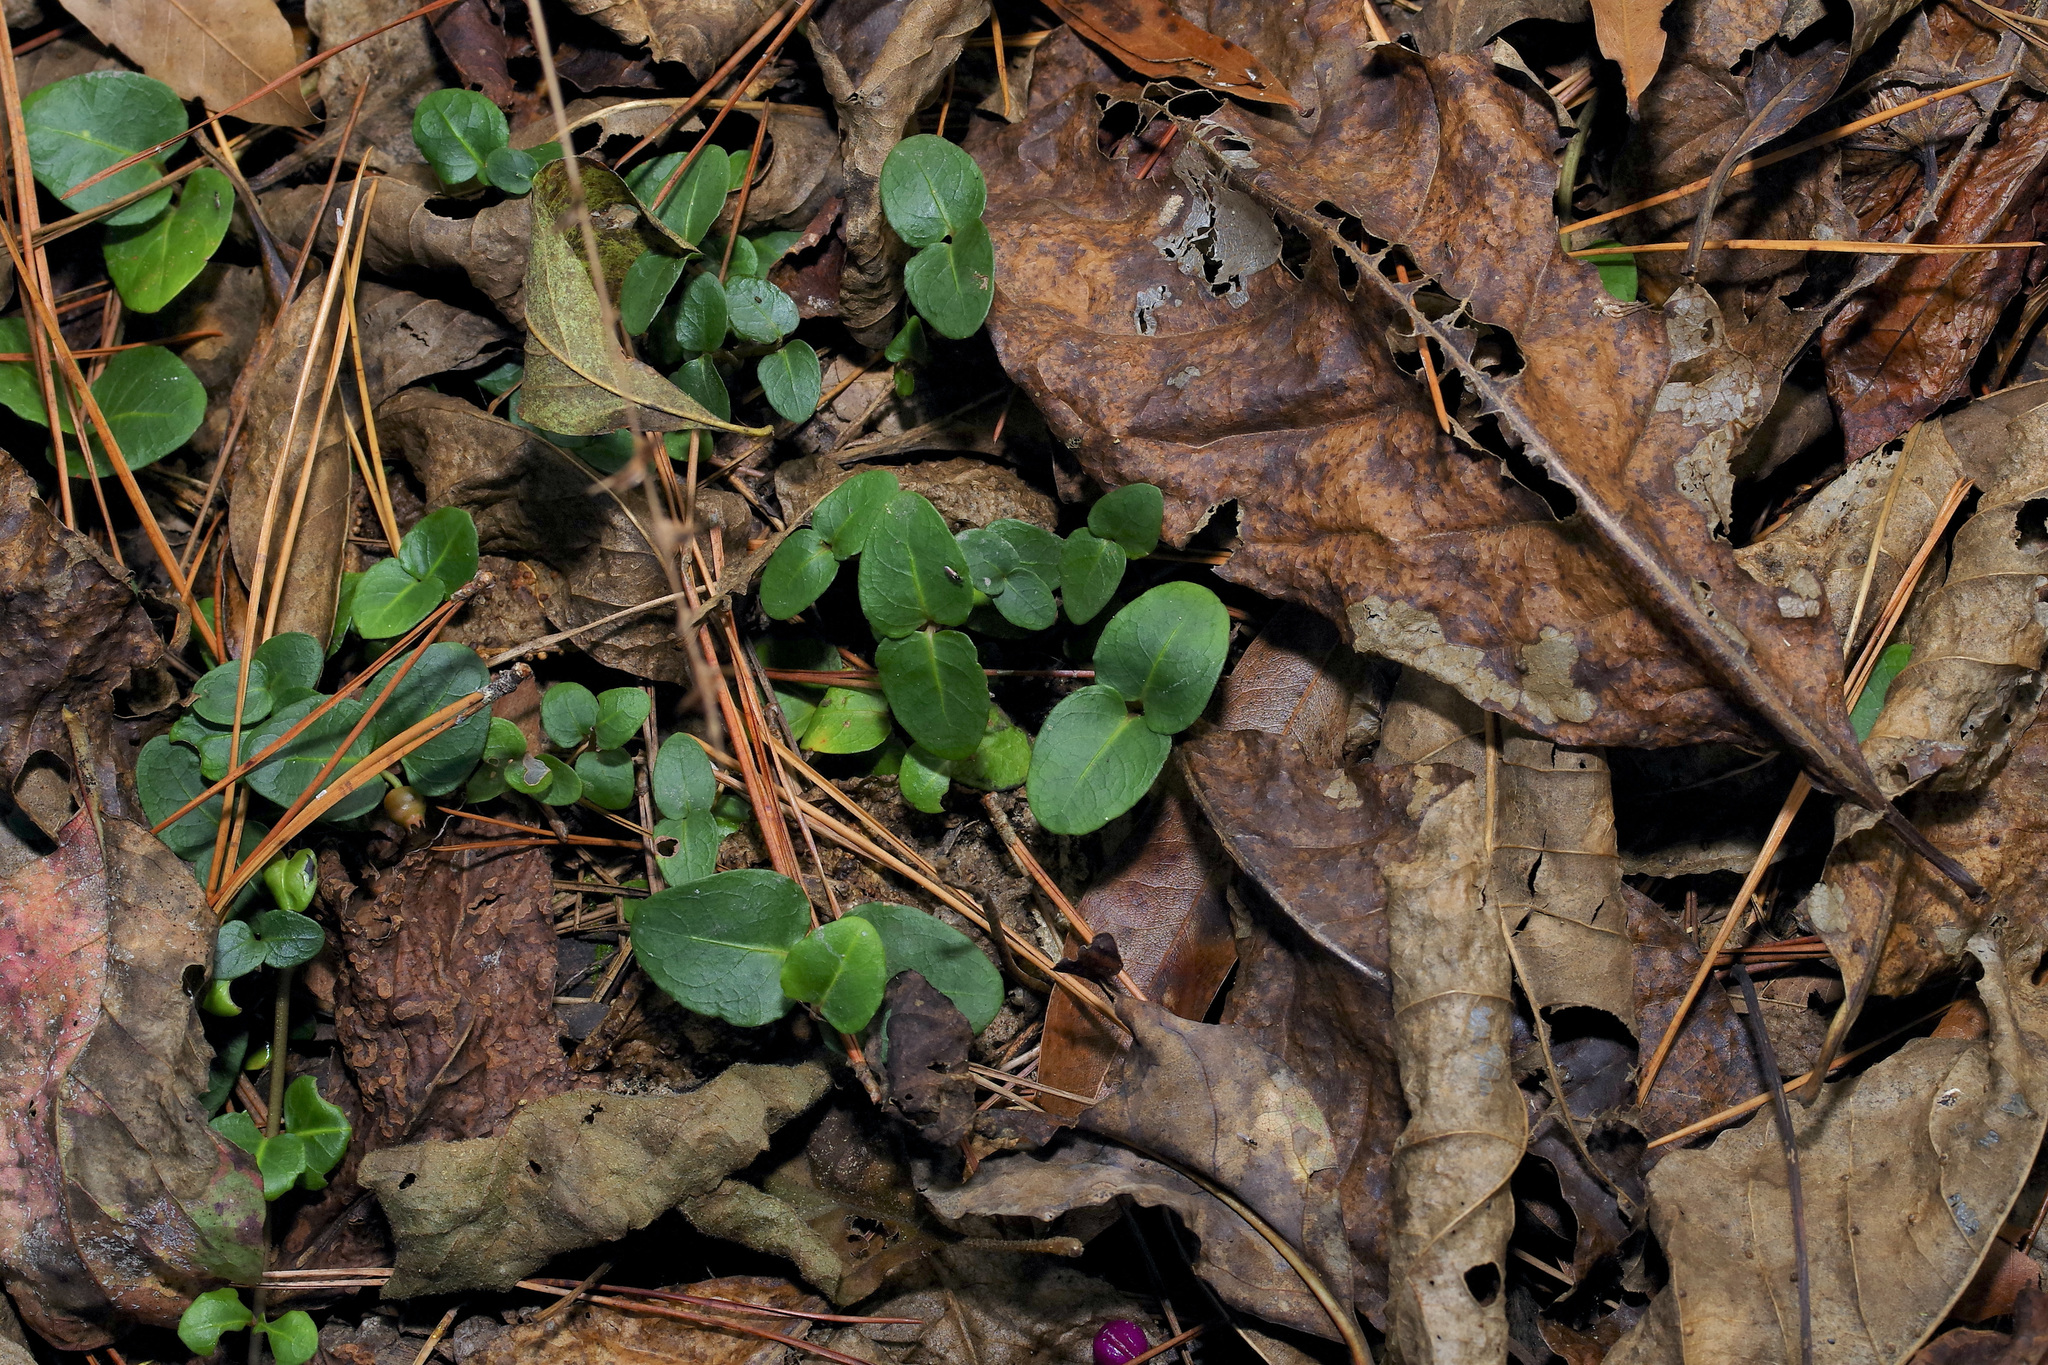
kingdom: Plantae
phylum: Tracheophyta
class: Magnoliopsida
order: Gentianales
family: Rubiaceae
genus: Mitchella
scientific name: Mitchella repens
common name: Partridge-berry
